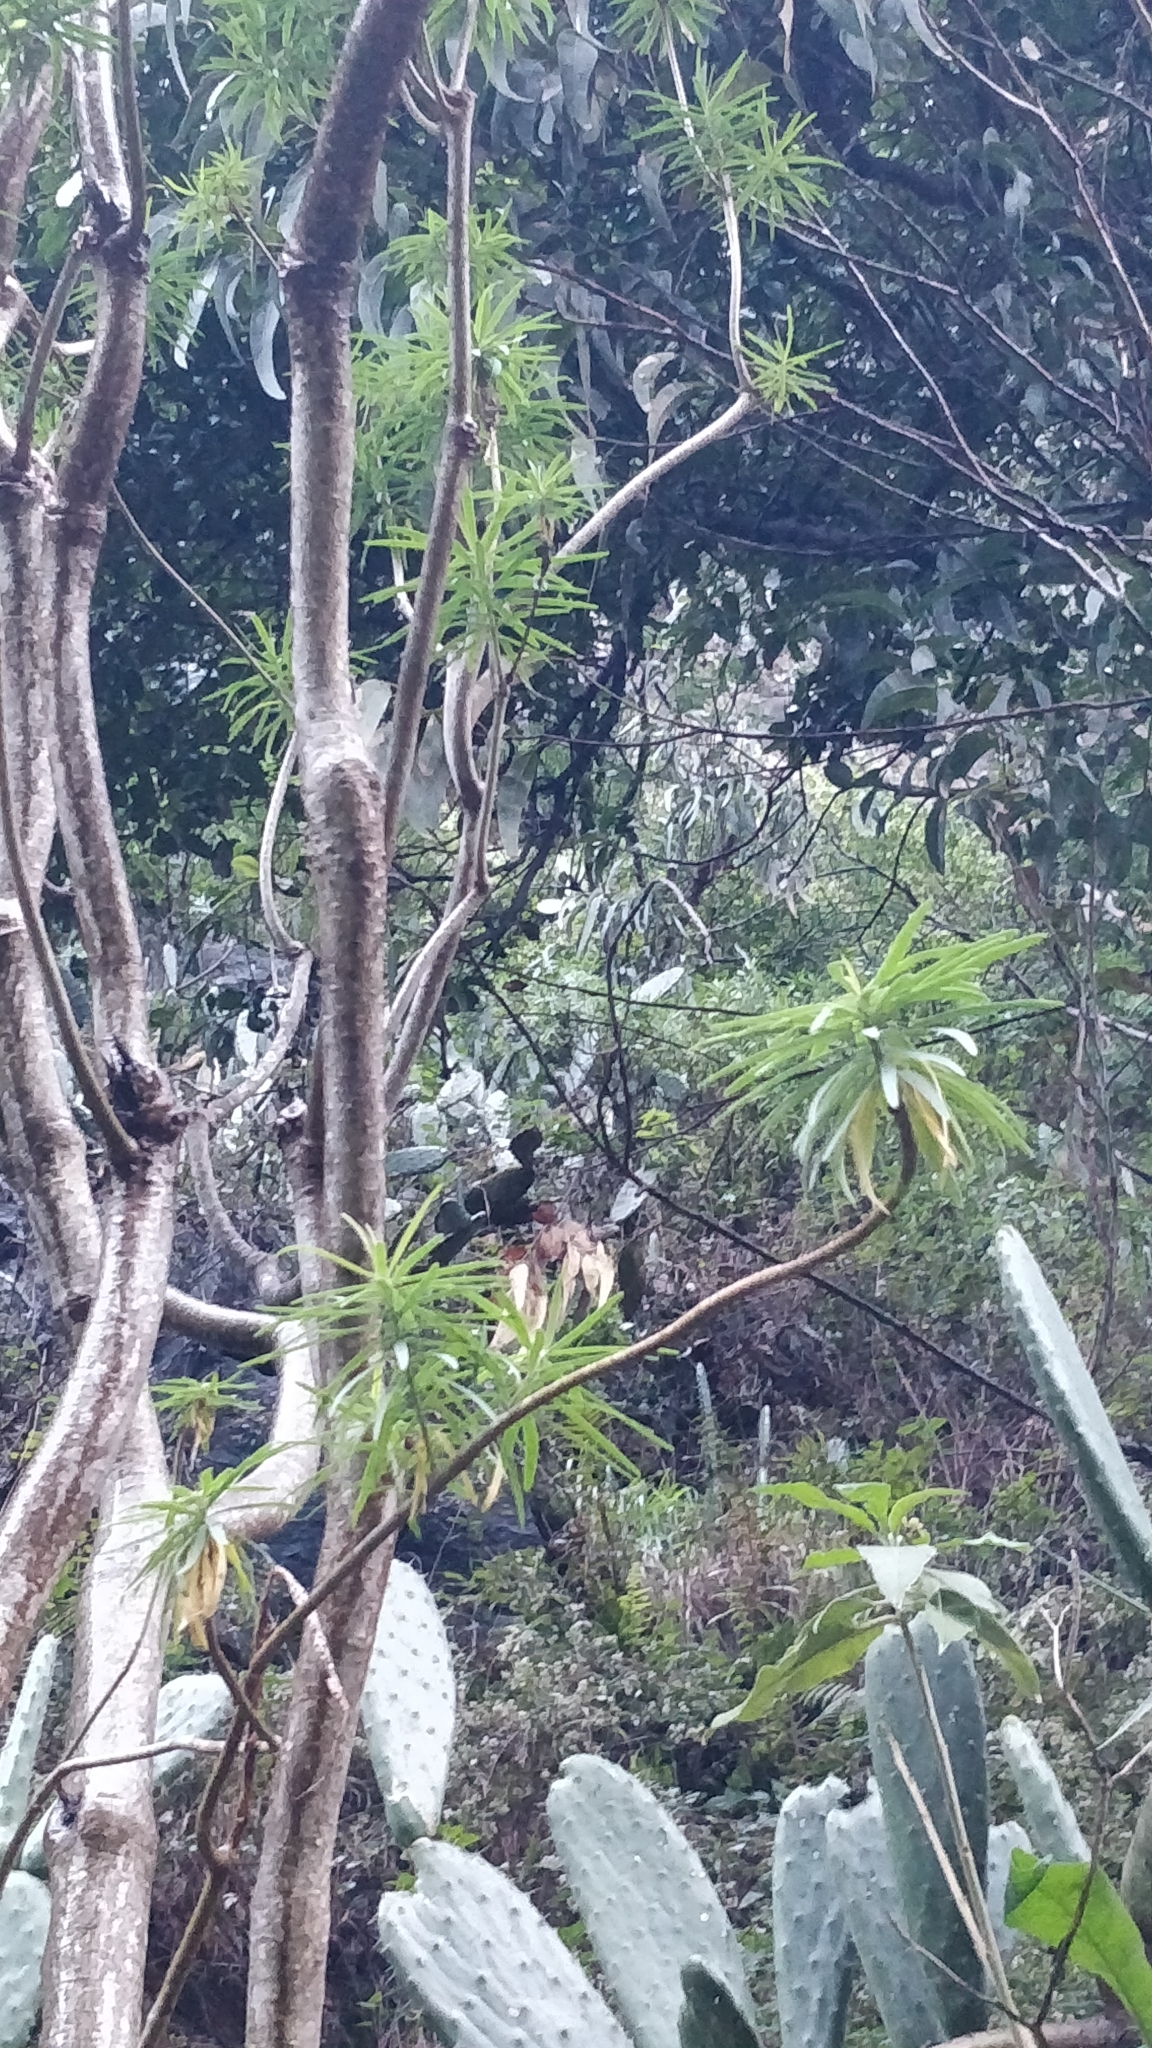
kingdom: Plantae
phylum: Tracheophyta
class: Magnoliopsida
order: Malpighiales
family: Euphorbiaceae
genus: Euphorbia
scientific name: Euphorbia piscatoria
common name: Fish-stunning spurge
